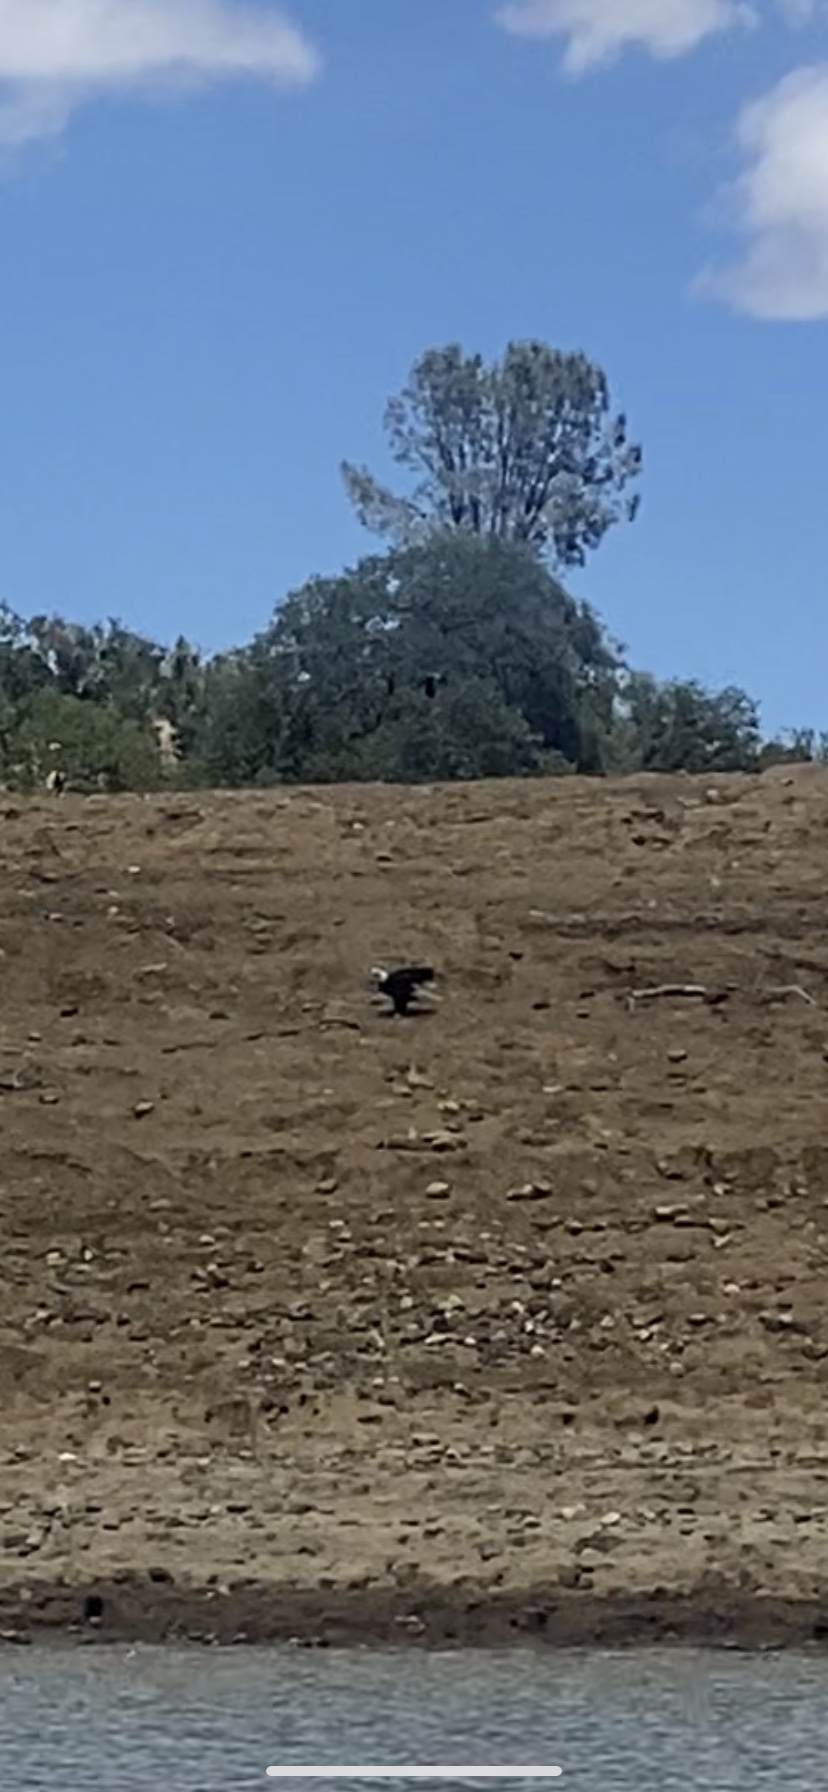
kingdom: Animalia
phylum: Chordata
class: Aves
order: Accipitriformes
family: Accipitridae
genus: Haliaeetus
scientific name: Haliaeetus leucocephalus
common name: Bald eagle
